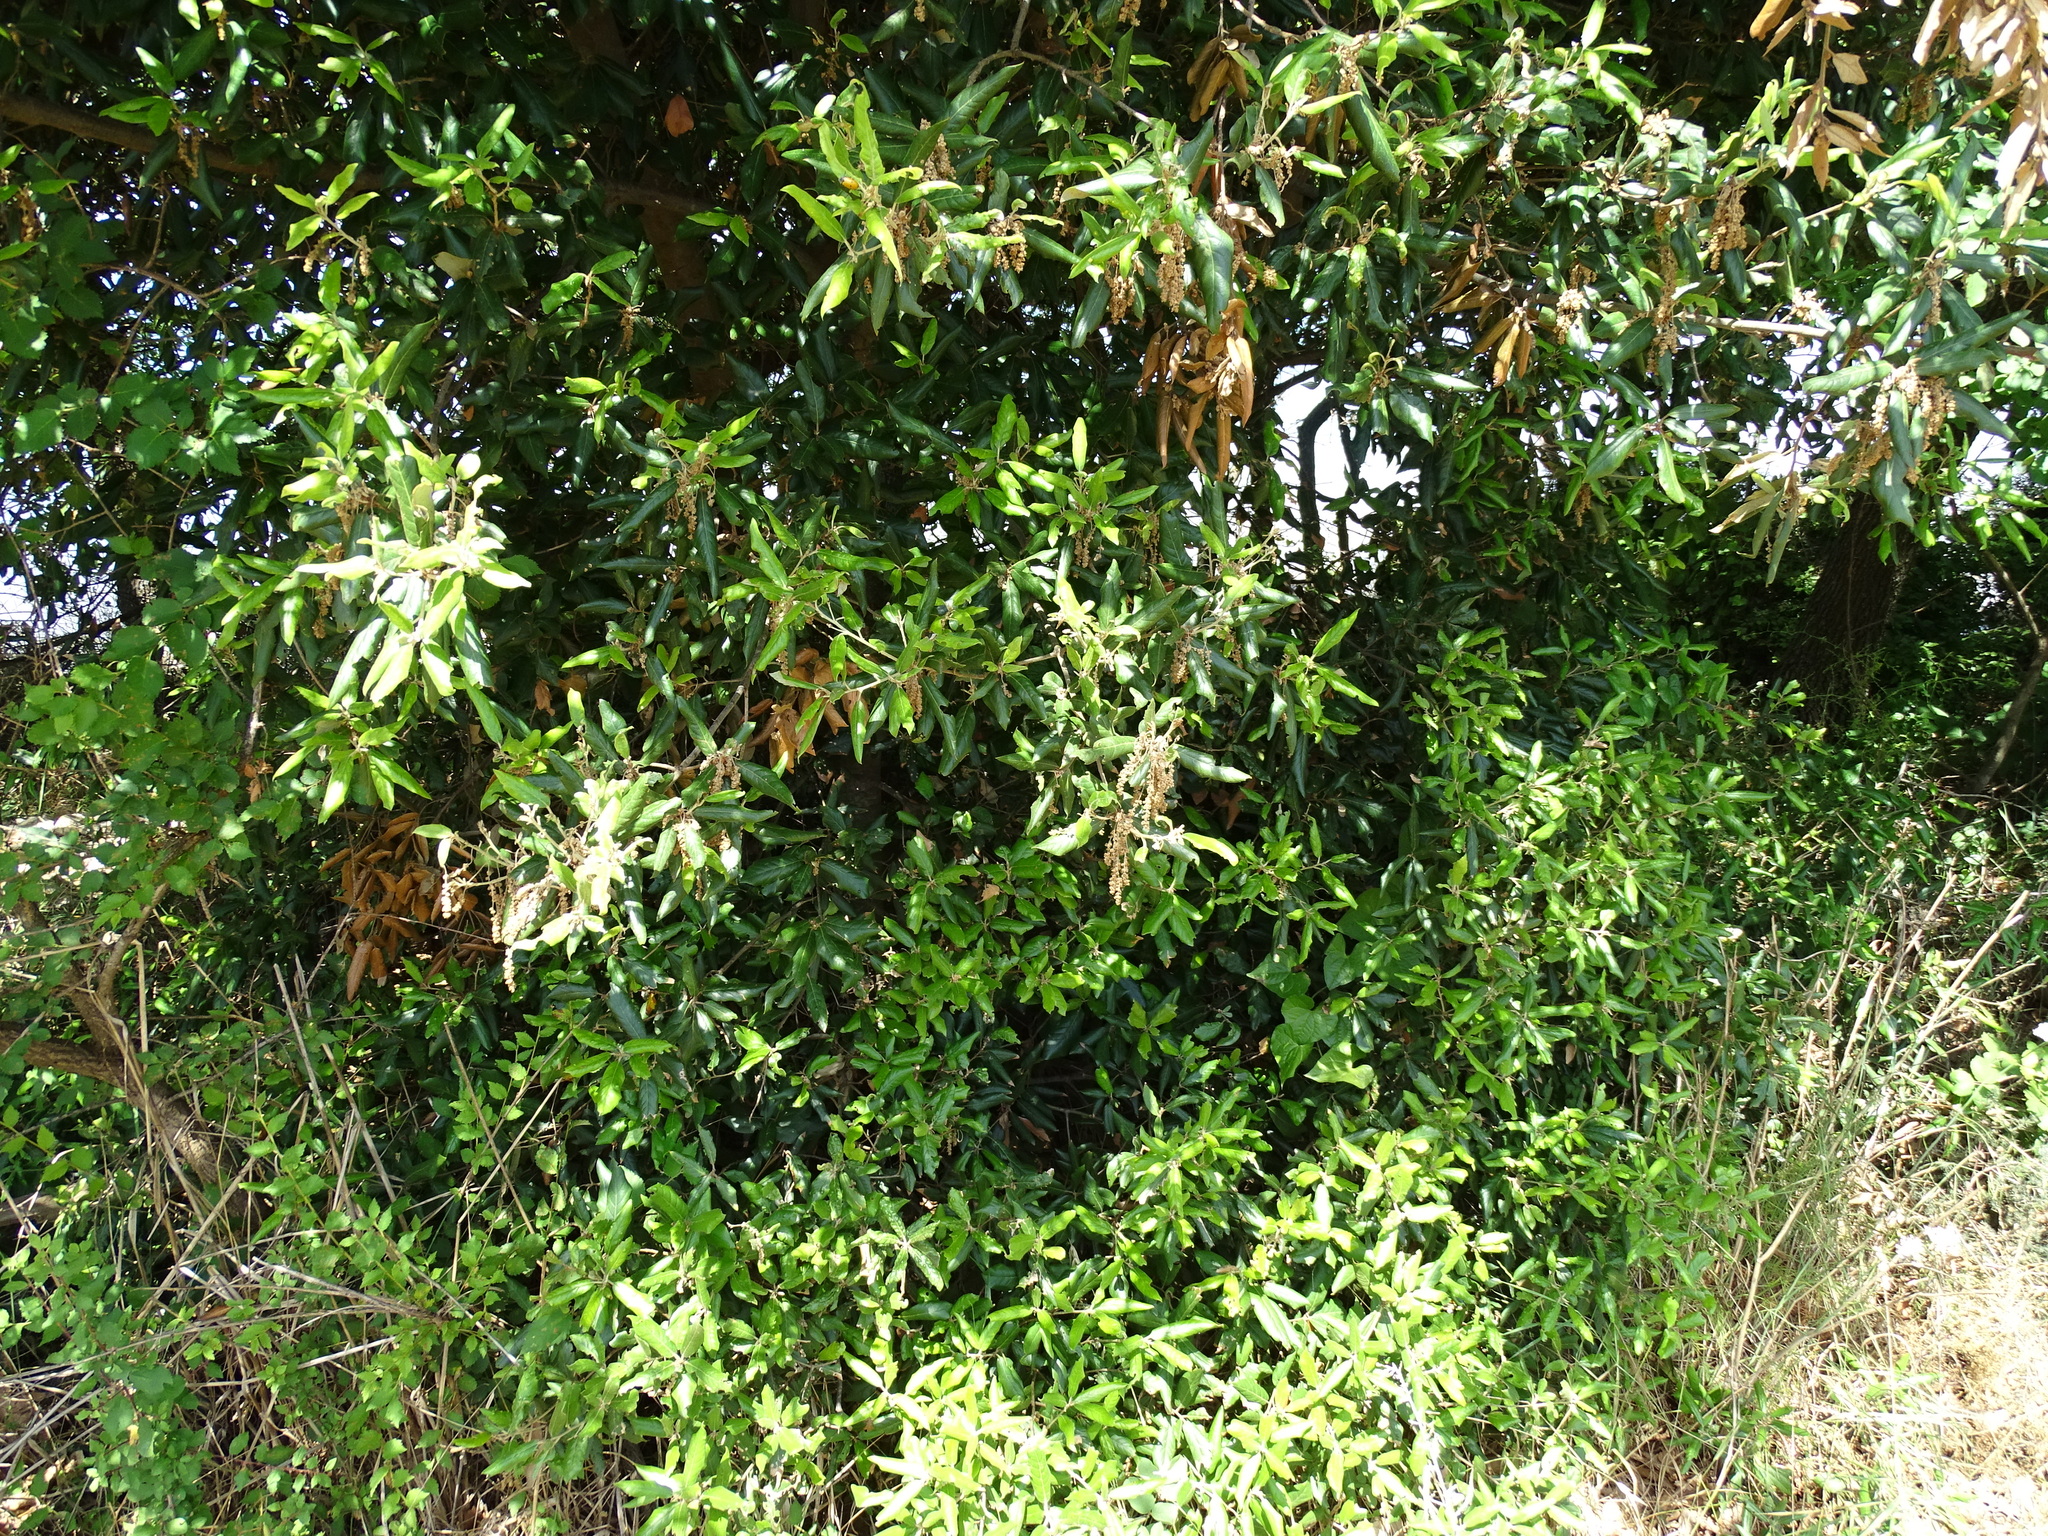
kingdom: Plantae
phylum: Tracheophyta
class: Magnoliopsida
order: Fagales
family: Fagaceae
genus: Quercus
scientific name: Quercus ilex
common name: Evergreen oak
